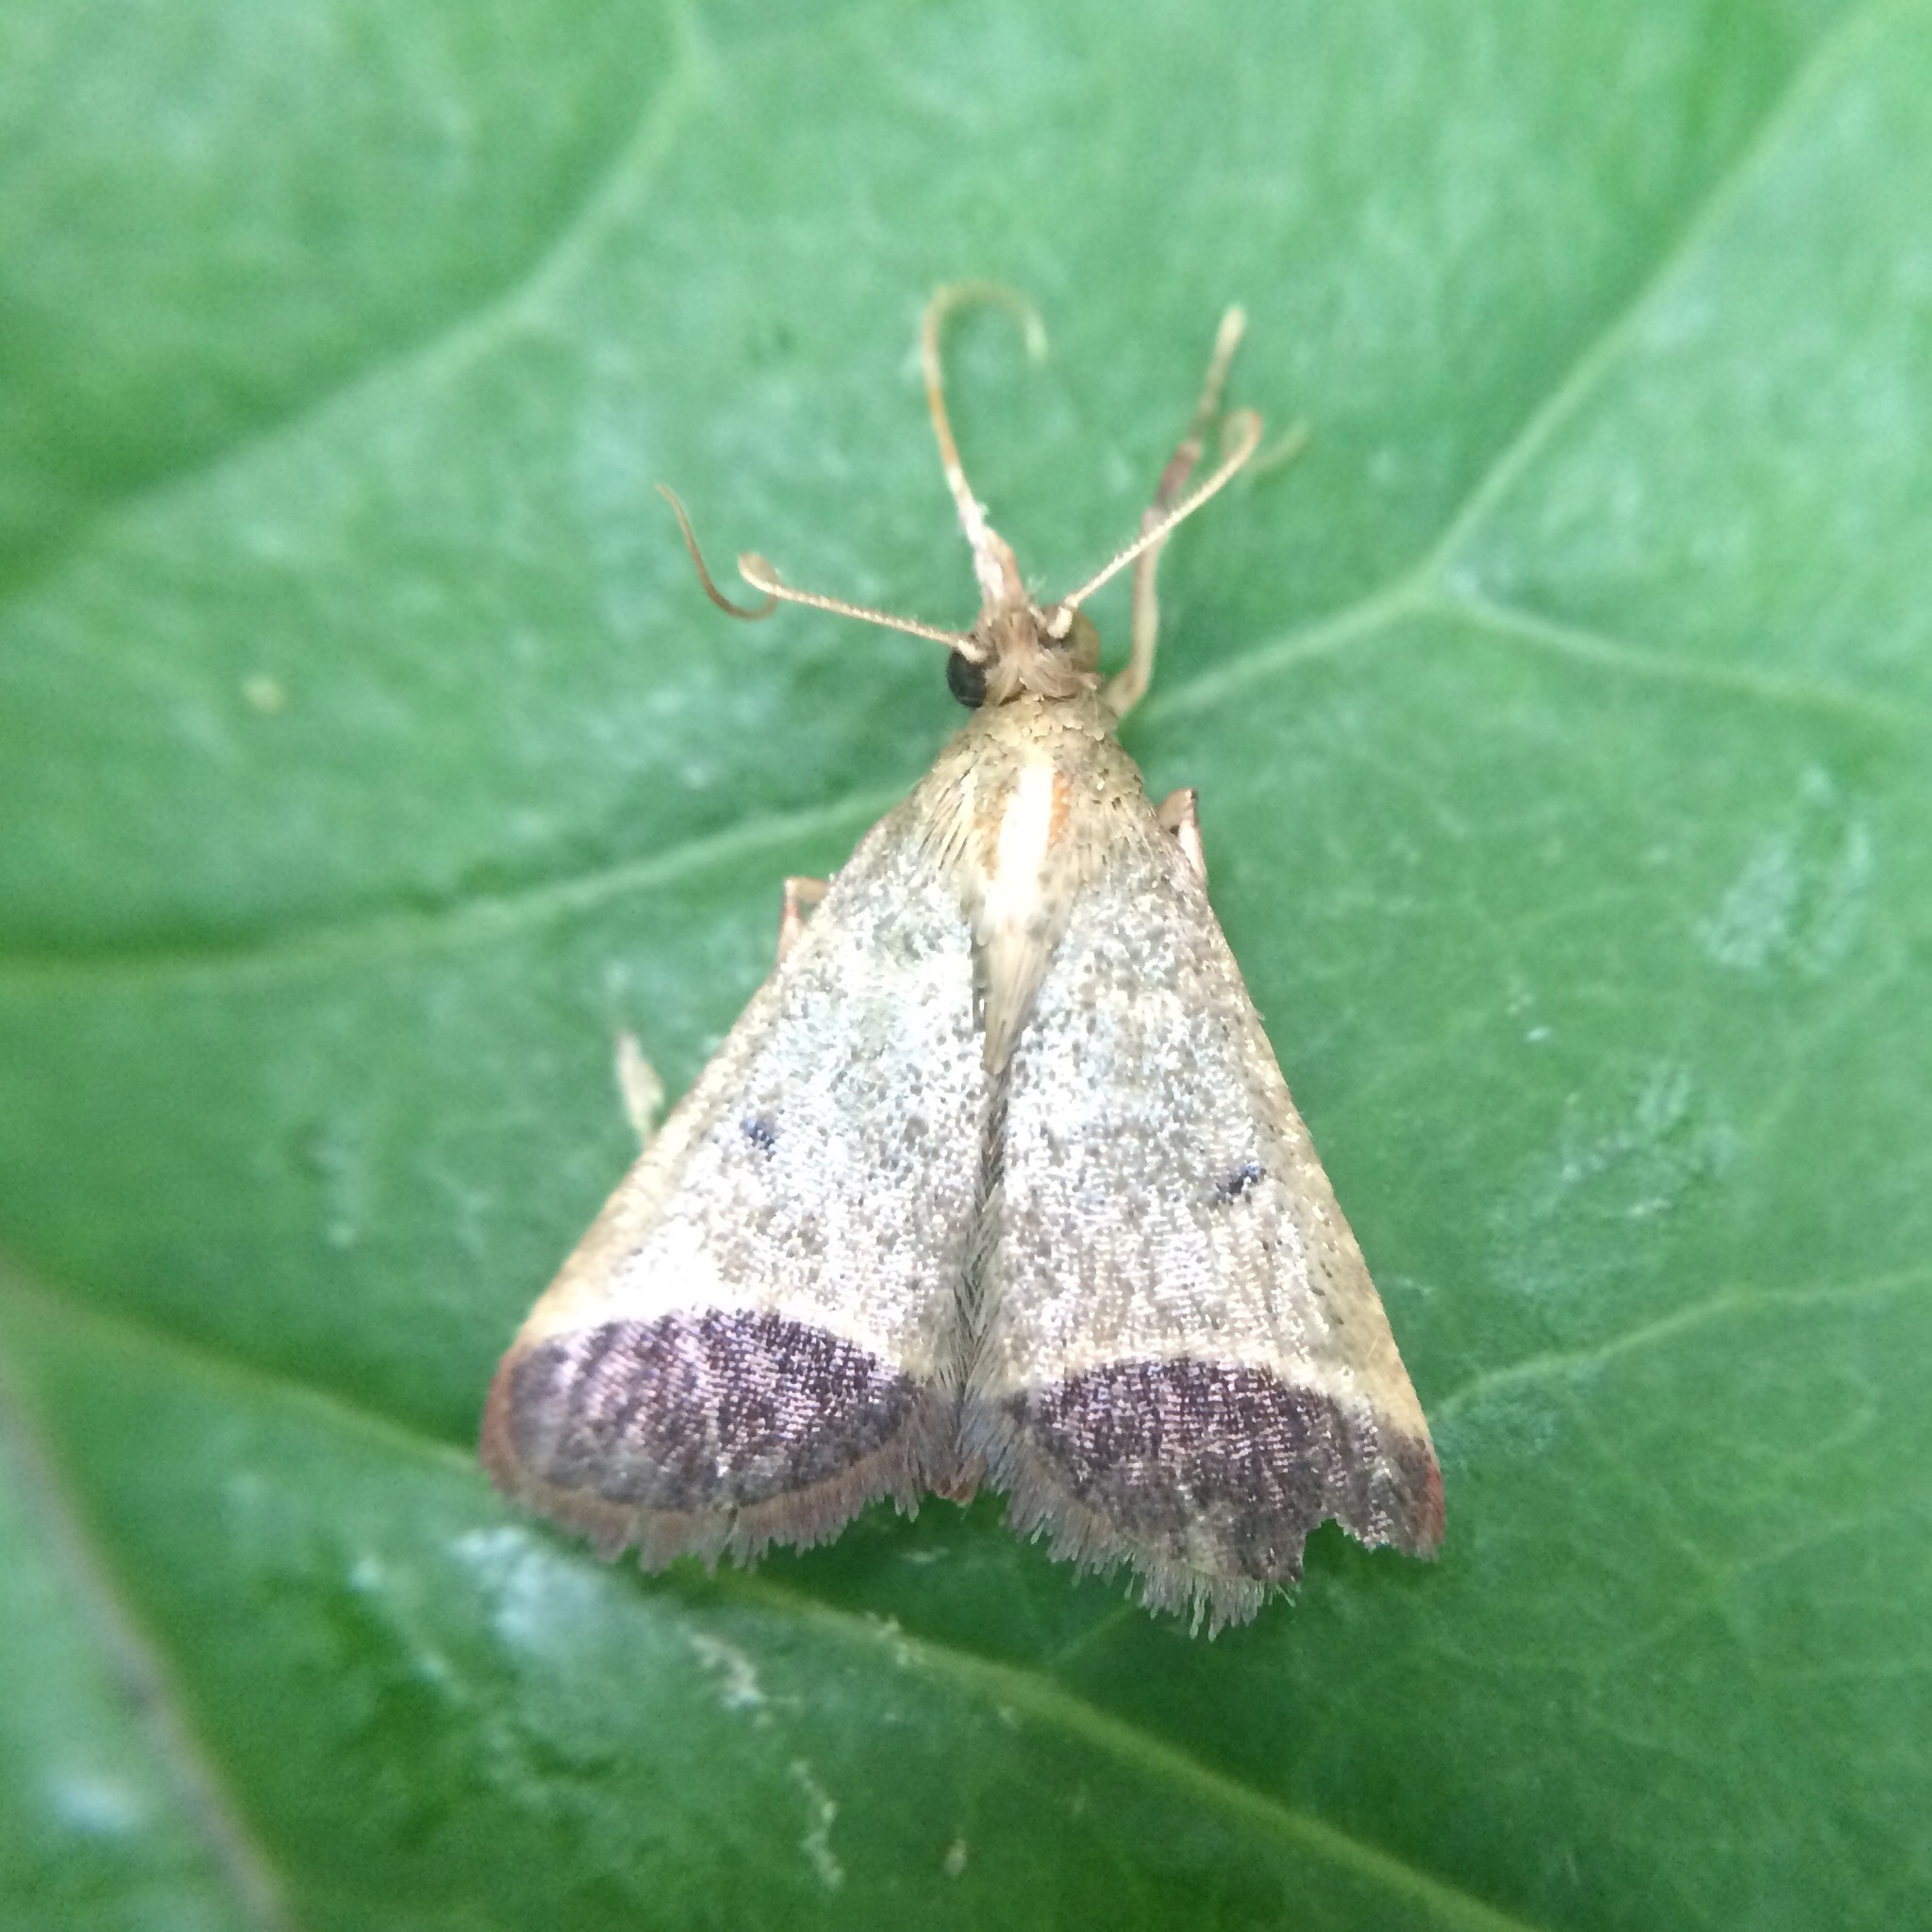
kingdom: Animalia
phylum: Arthropoda
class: Insecta
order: Lepidoptera
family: Pyralidae
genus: Tegulifera
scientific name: Tegulifera Sphalerosticha oblunata
